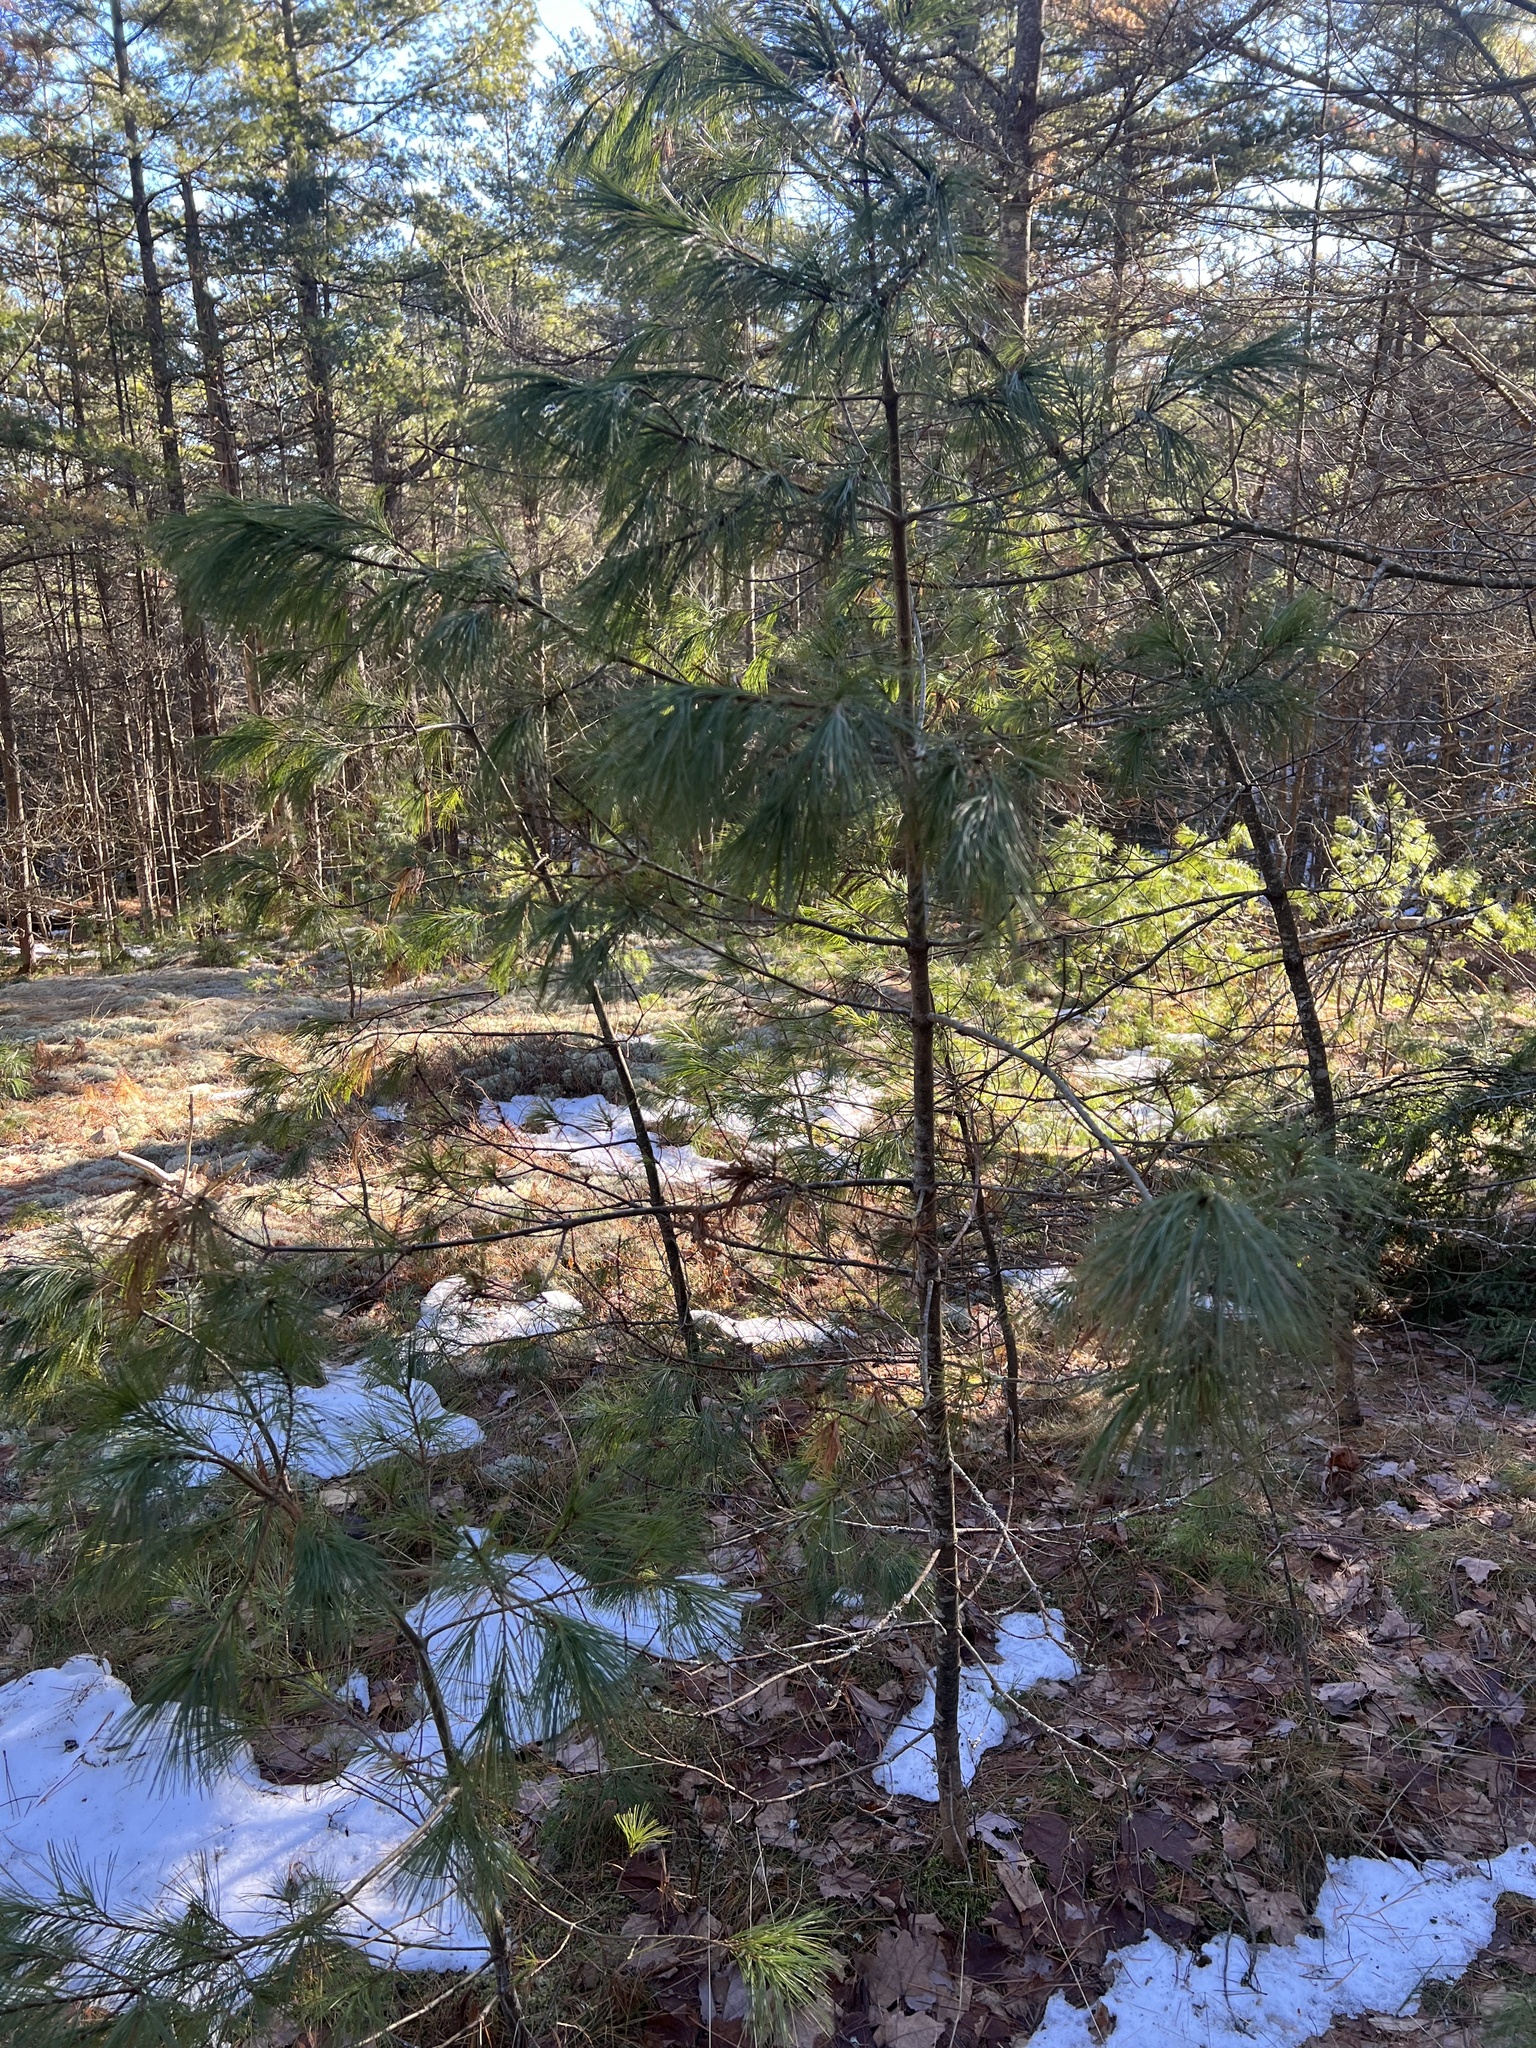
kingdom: Plantae
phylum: Tracheophyta
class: Pinopsida
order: Pinales
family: Pinaceae
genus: Pinus
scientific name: Pinus strobus
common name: Weymouth pine
